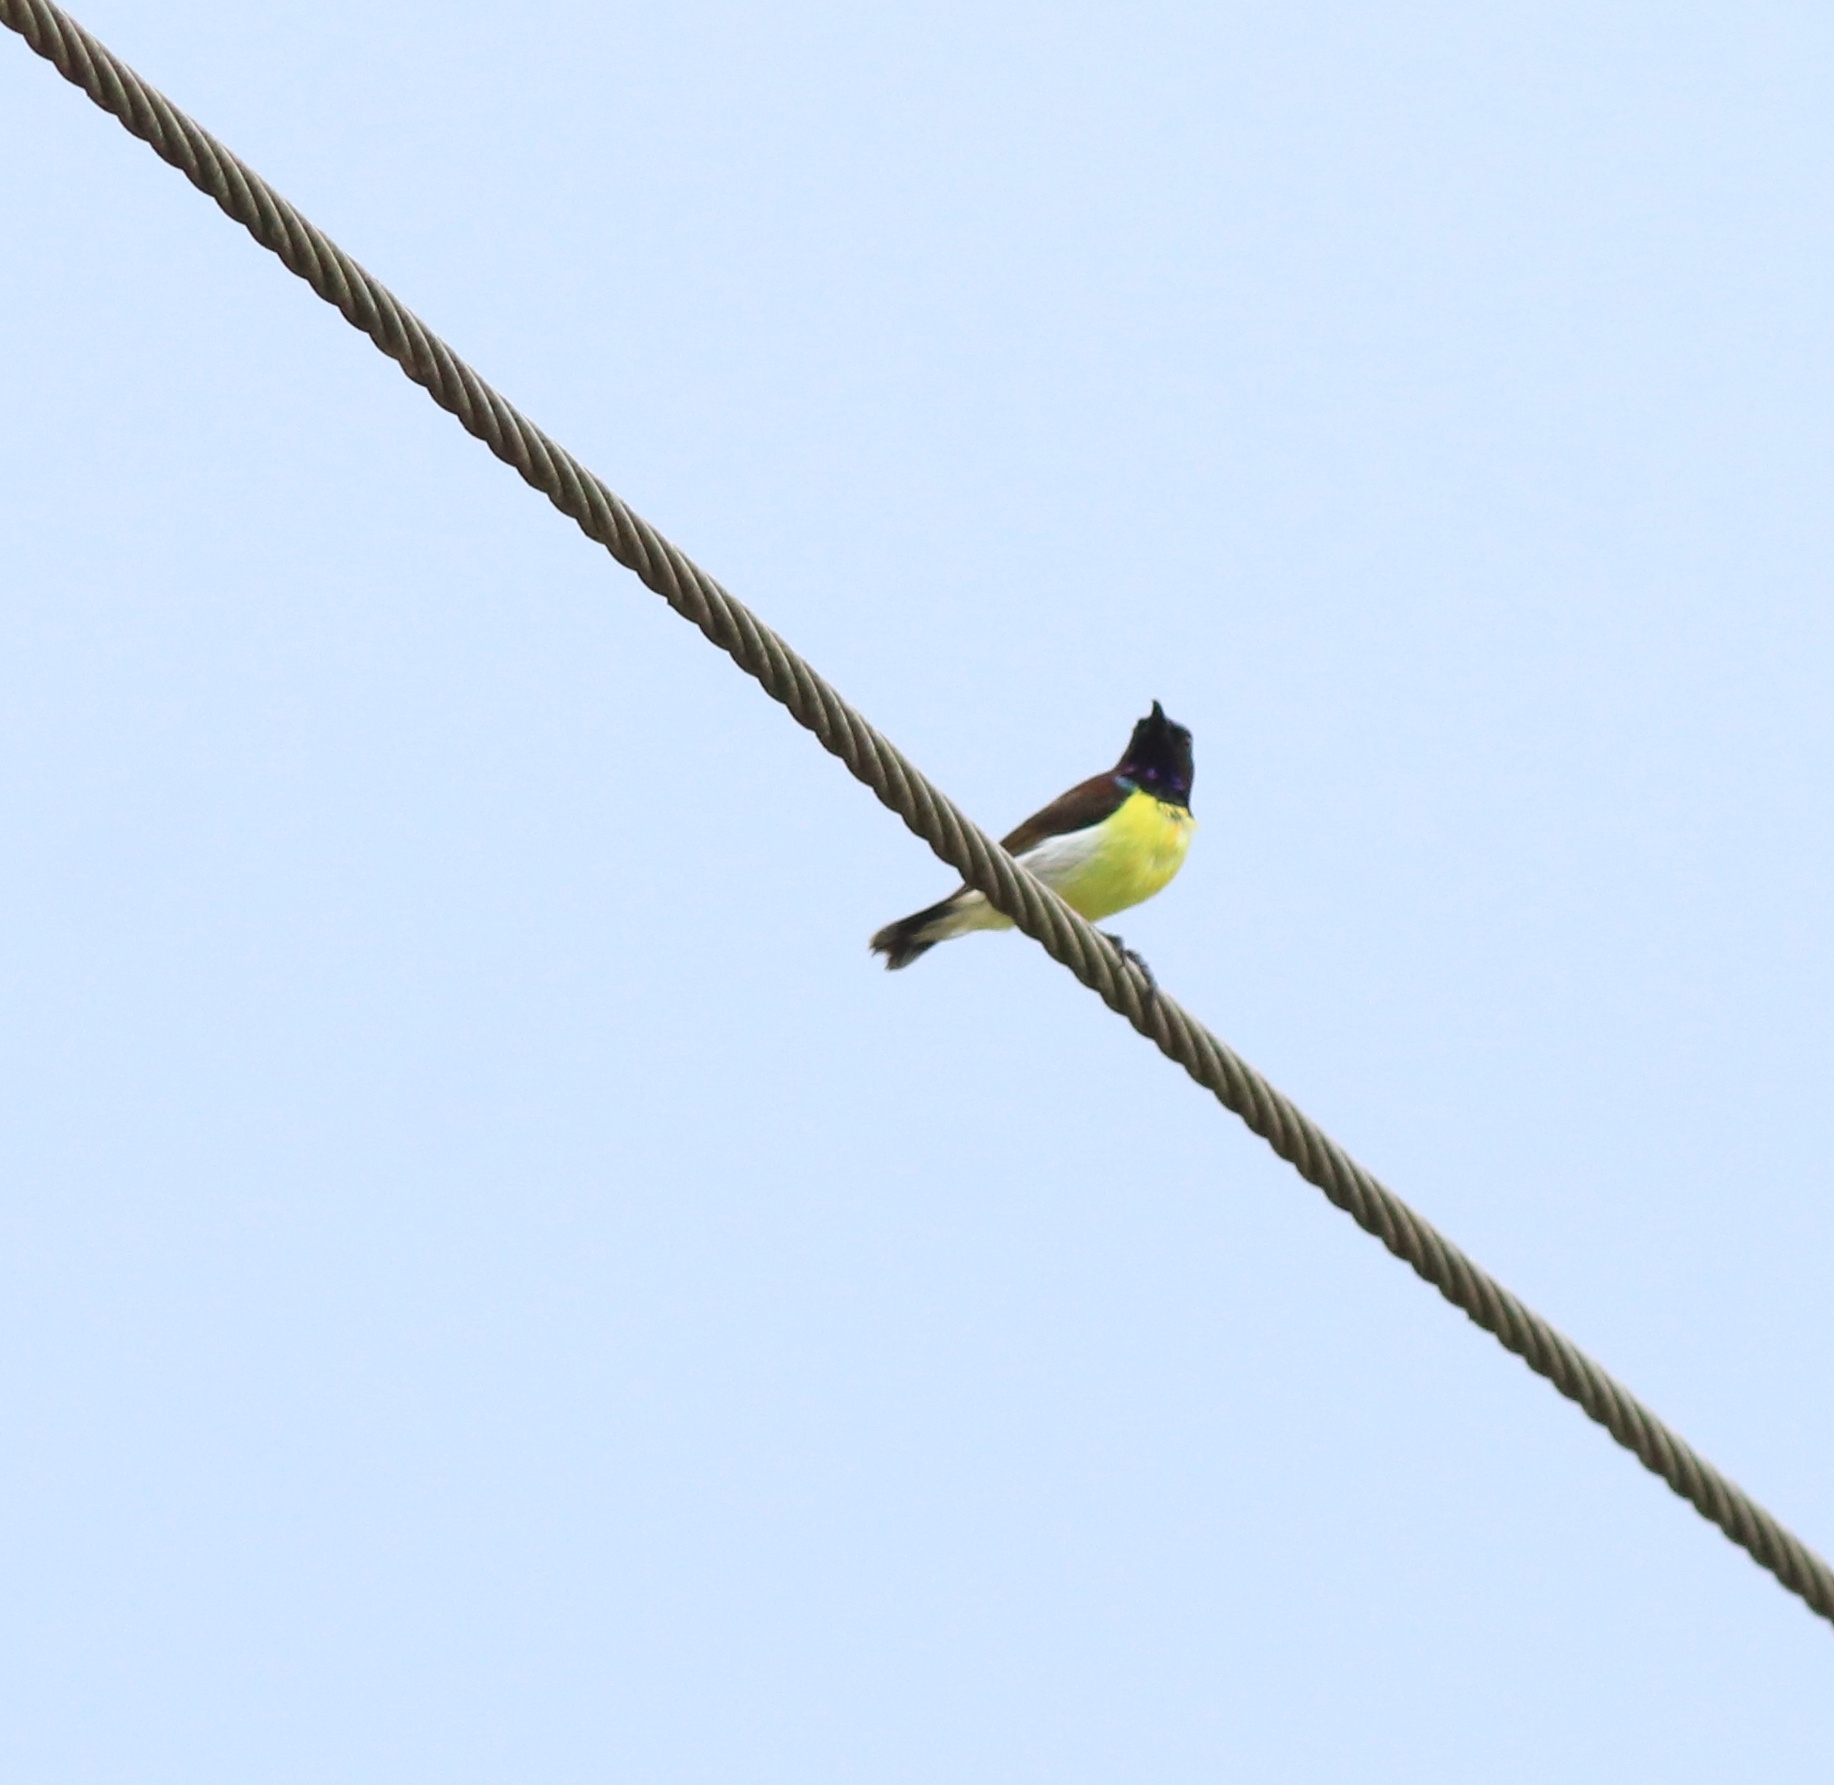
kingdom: Animalia
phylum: Chordata
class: Aves
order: Passeriformes
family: Nectariniidae
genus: Leptocoma
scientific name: Leptocoma zeylonica
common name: Purple-rumped sunbird
